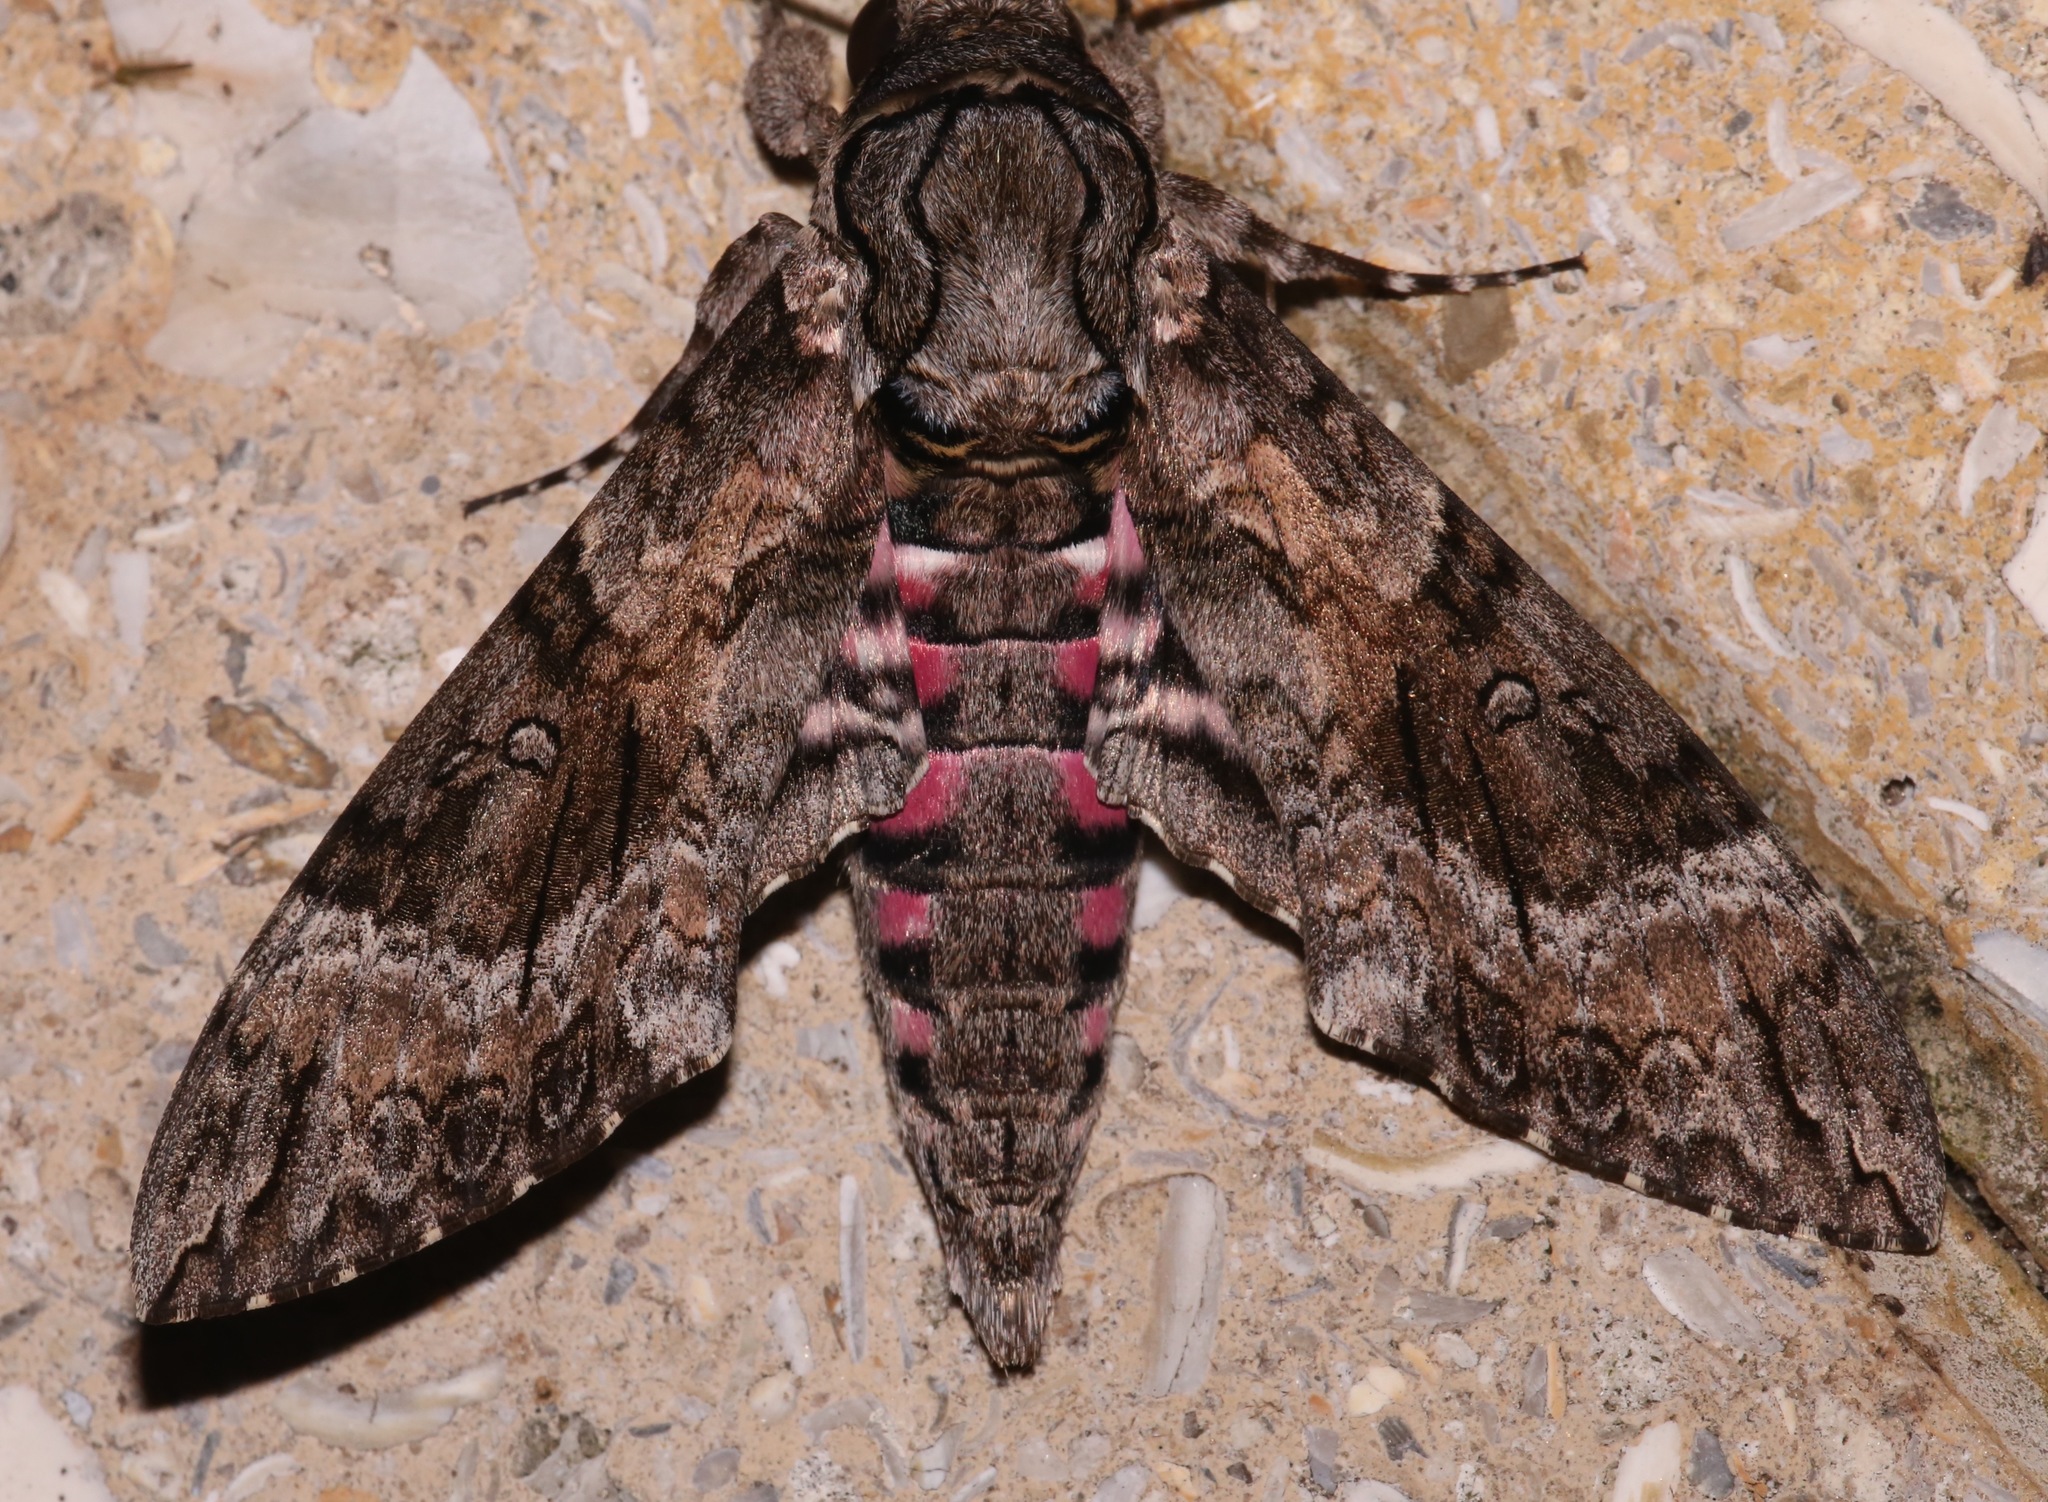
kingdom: Animalia
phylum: Arthropoda
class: Insecta
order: Lepidoptera
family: Sphingidae
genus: Agrius
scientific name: Agrius cingulata
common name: Pink-spotted hawkmoth
